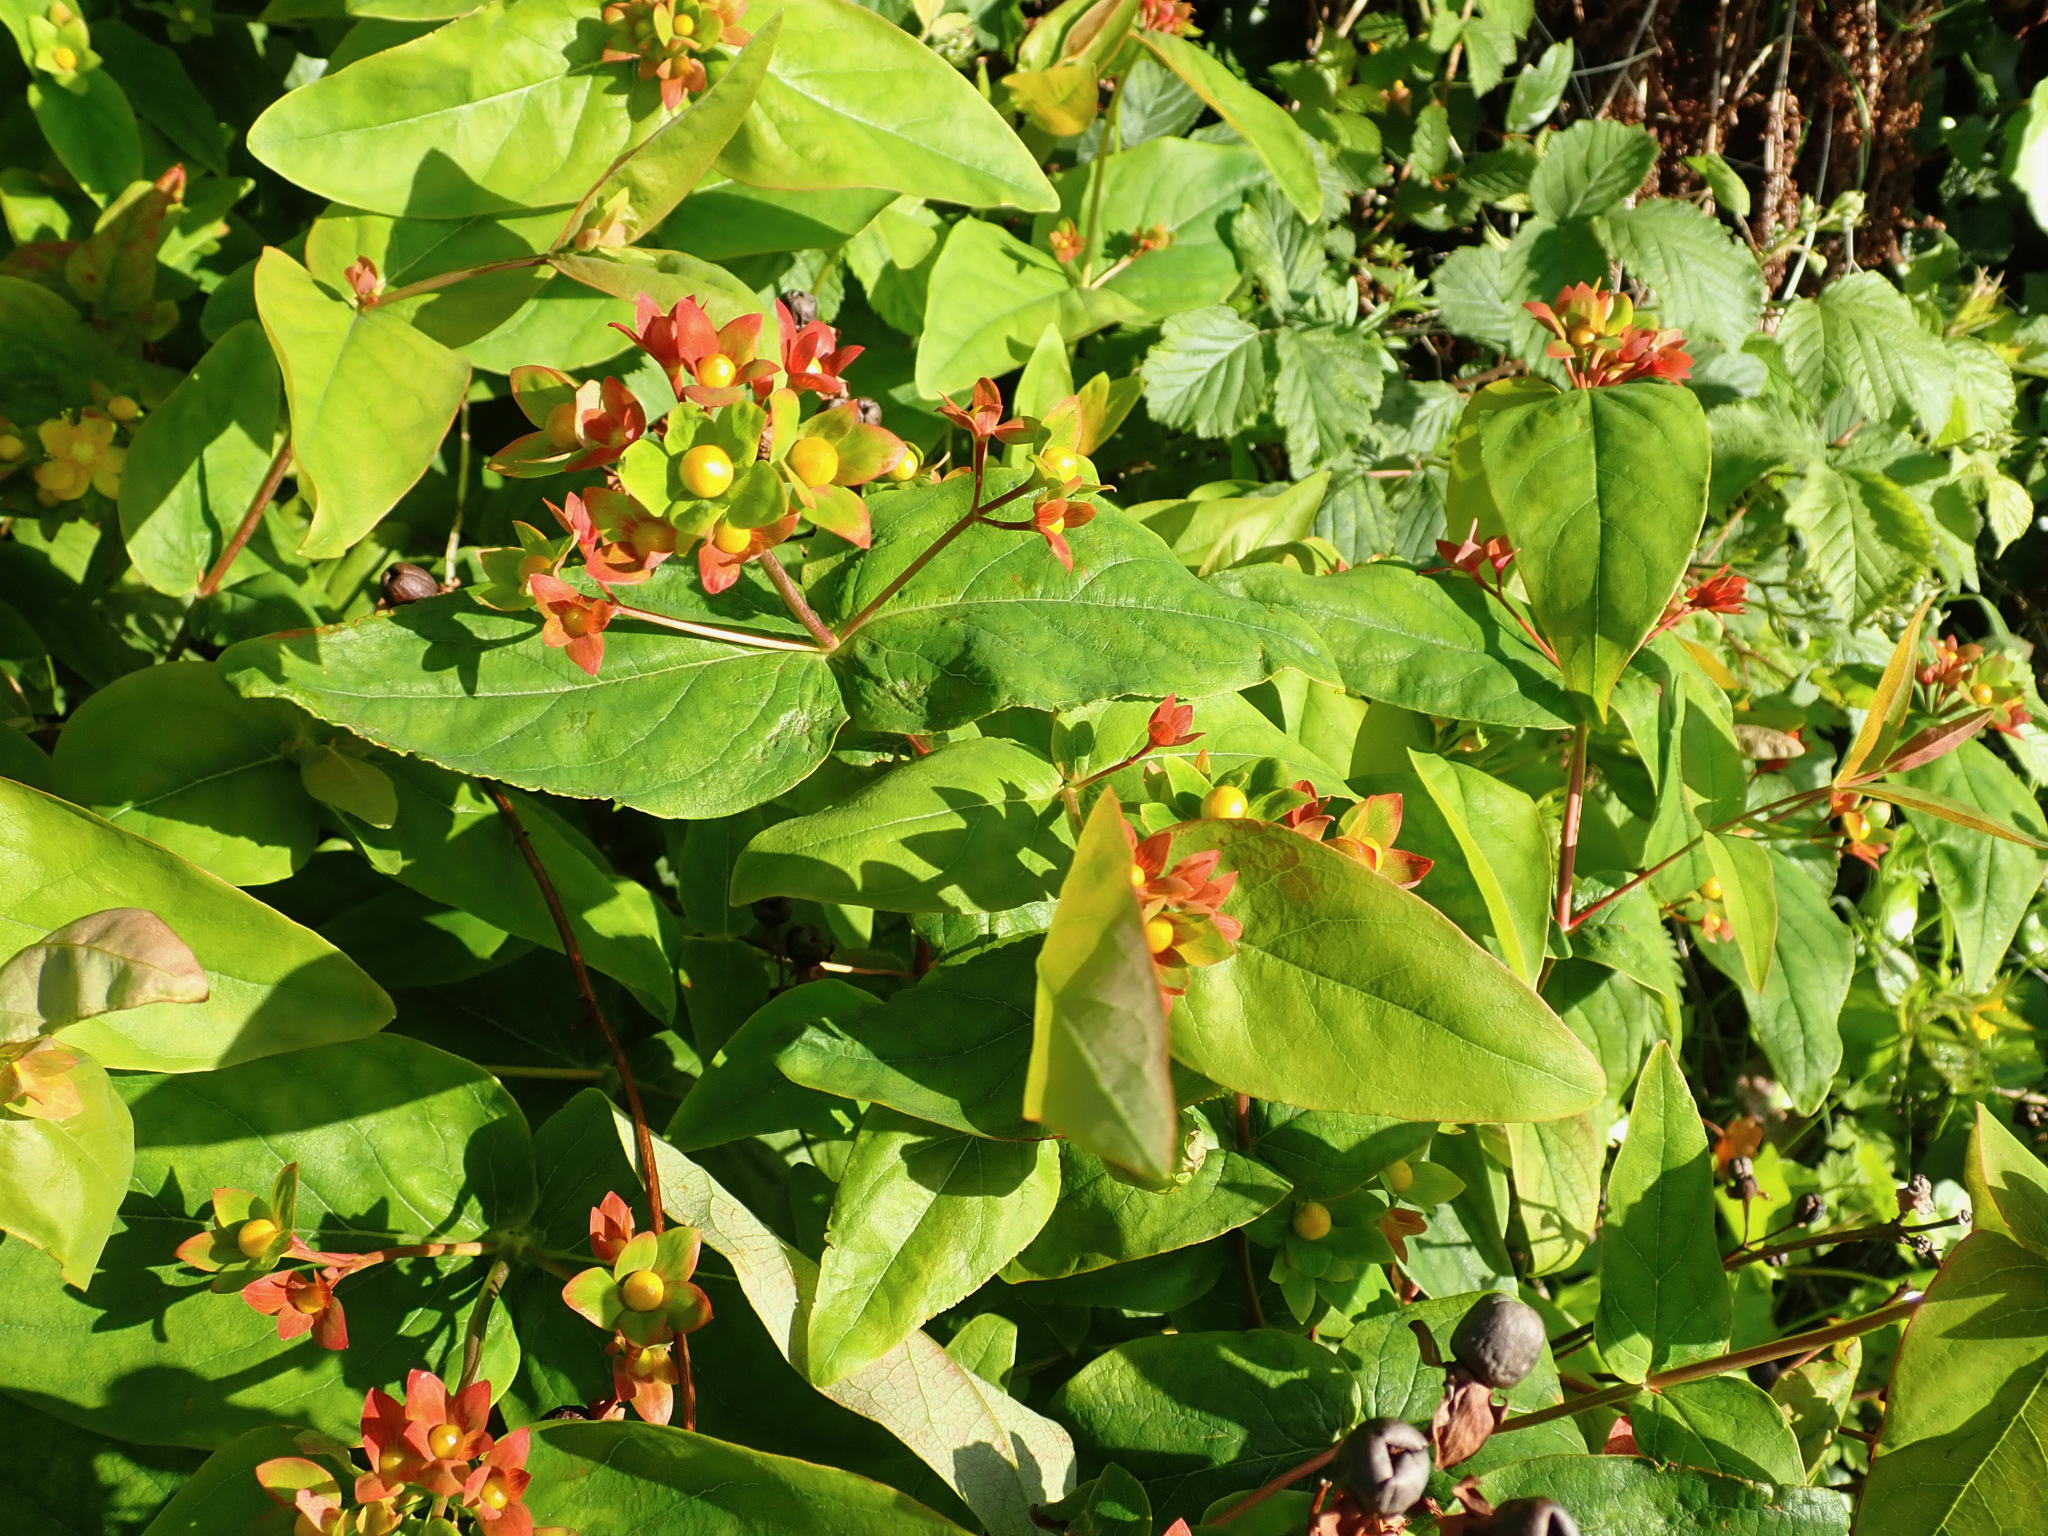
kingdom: Plantae
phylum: Tracheophyta
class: Magnoliopsida
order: Malpighiales
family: Hypericaceae
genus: Hypericum
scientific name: Hypericum androsaemum
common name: Sweet-amber
